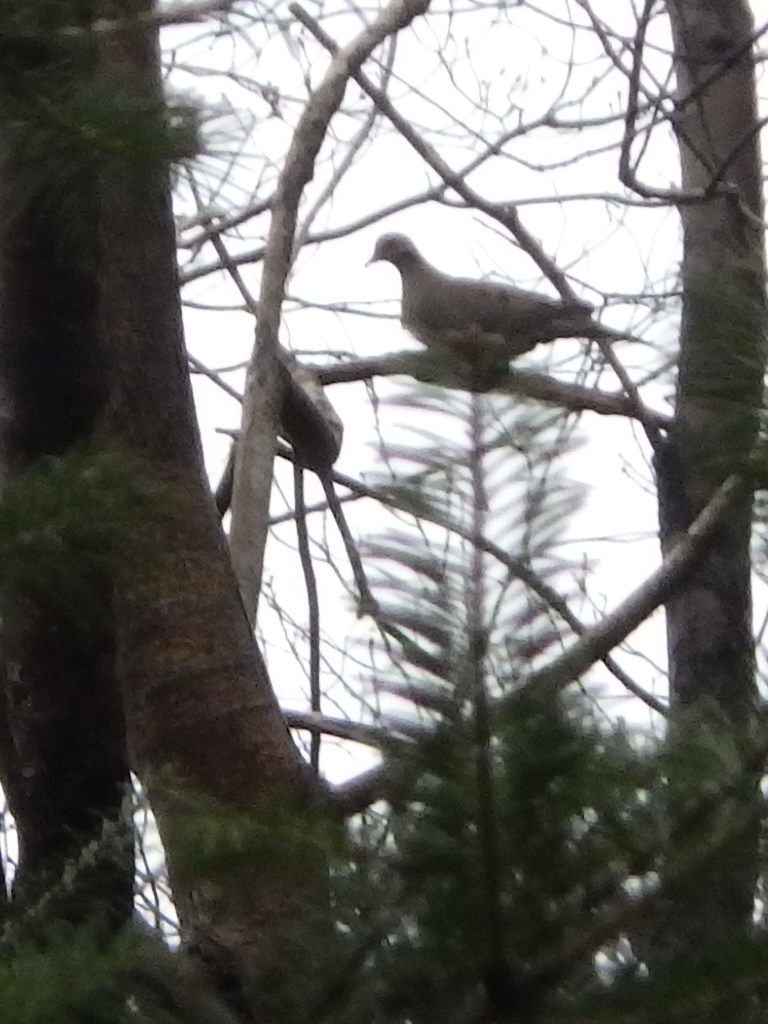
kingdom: Animalia
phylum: Chordata
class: Aves
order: Columbiformes
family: Columbidae
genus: Zenaida
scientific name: Zenaida macroura
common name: Mourning dove
